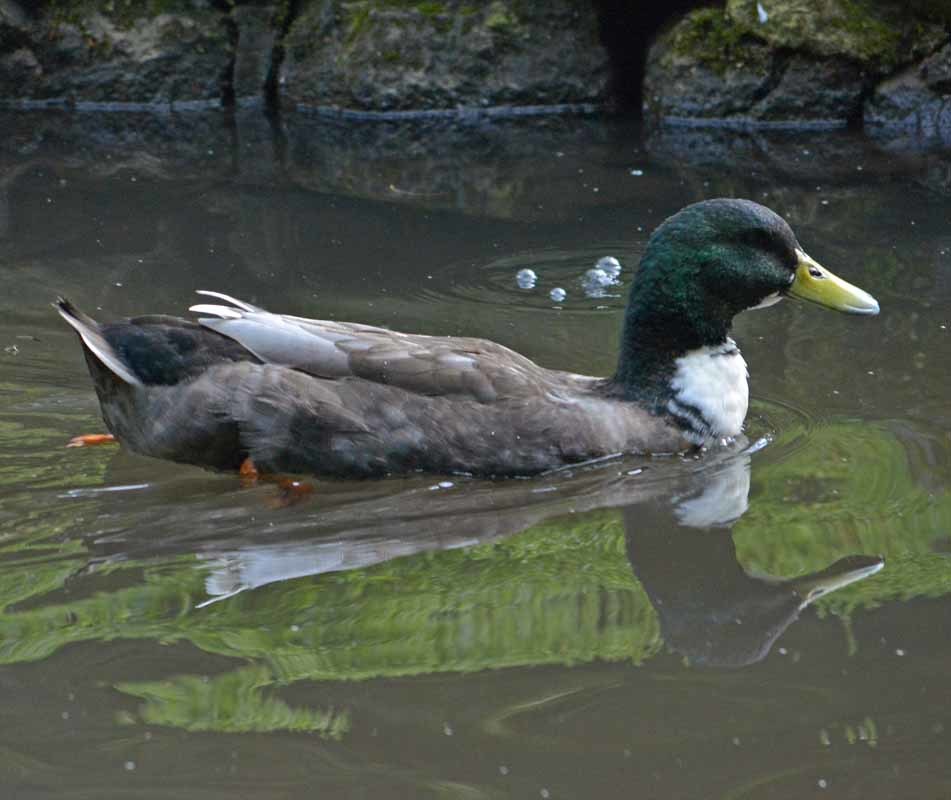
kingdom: Animalia
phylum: Chordata
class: Aves
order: Anseriformes
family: Anatidae
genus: Anas
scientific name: Anas platyrhynchos
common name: Mallard
